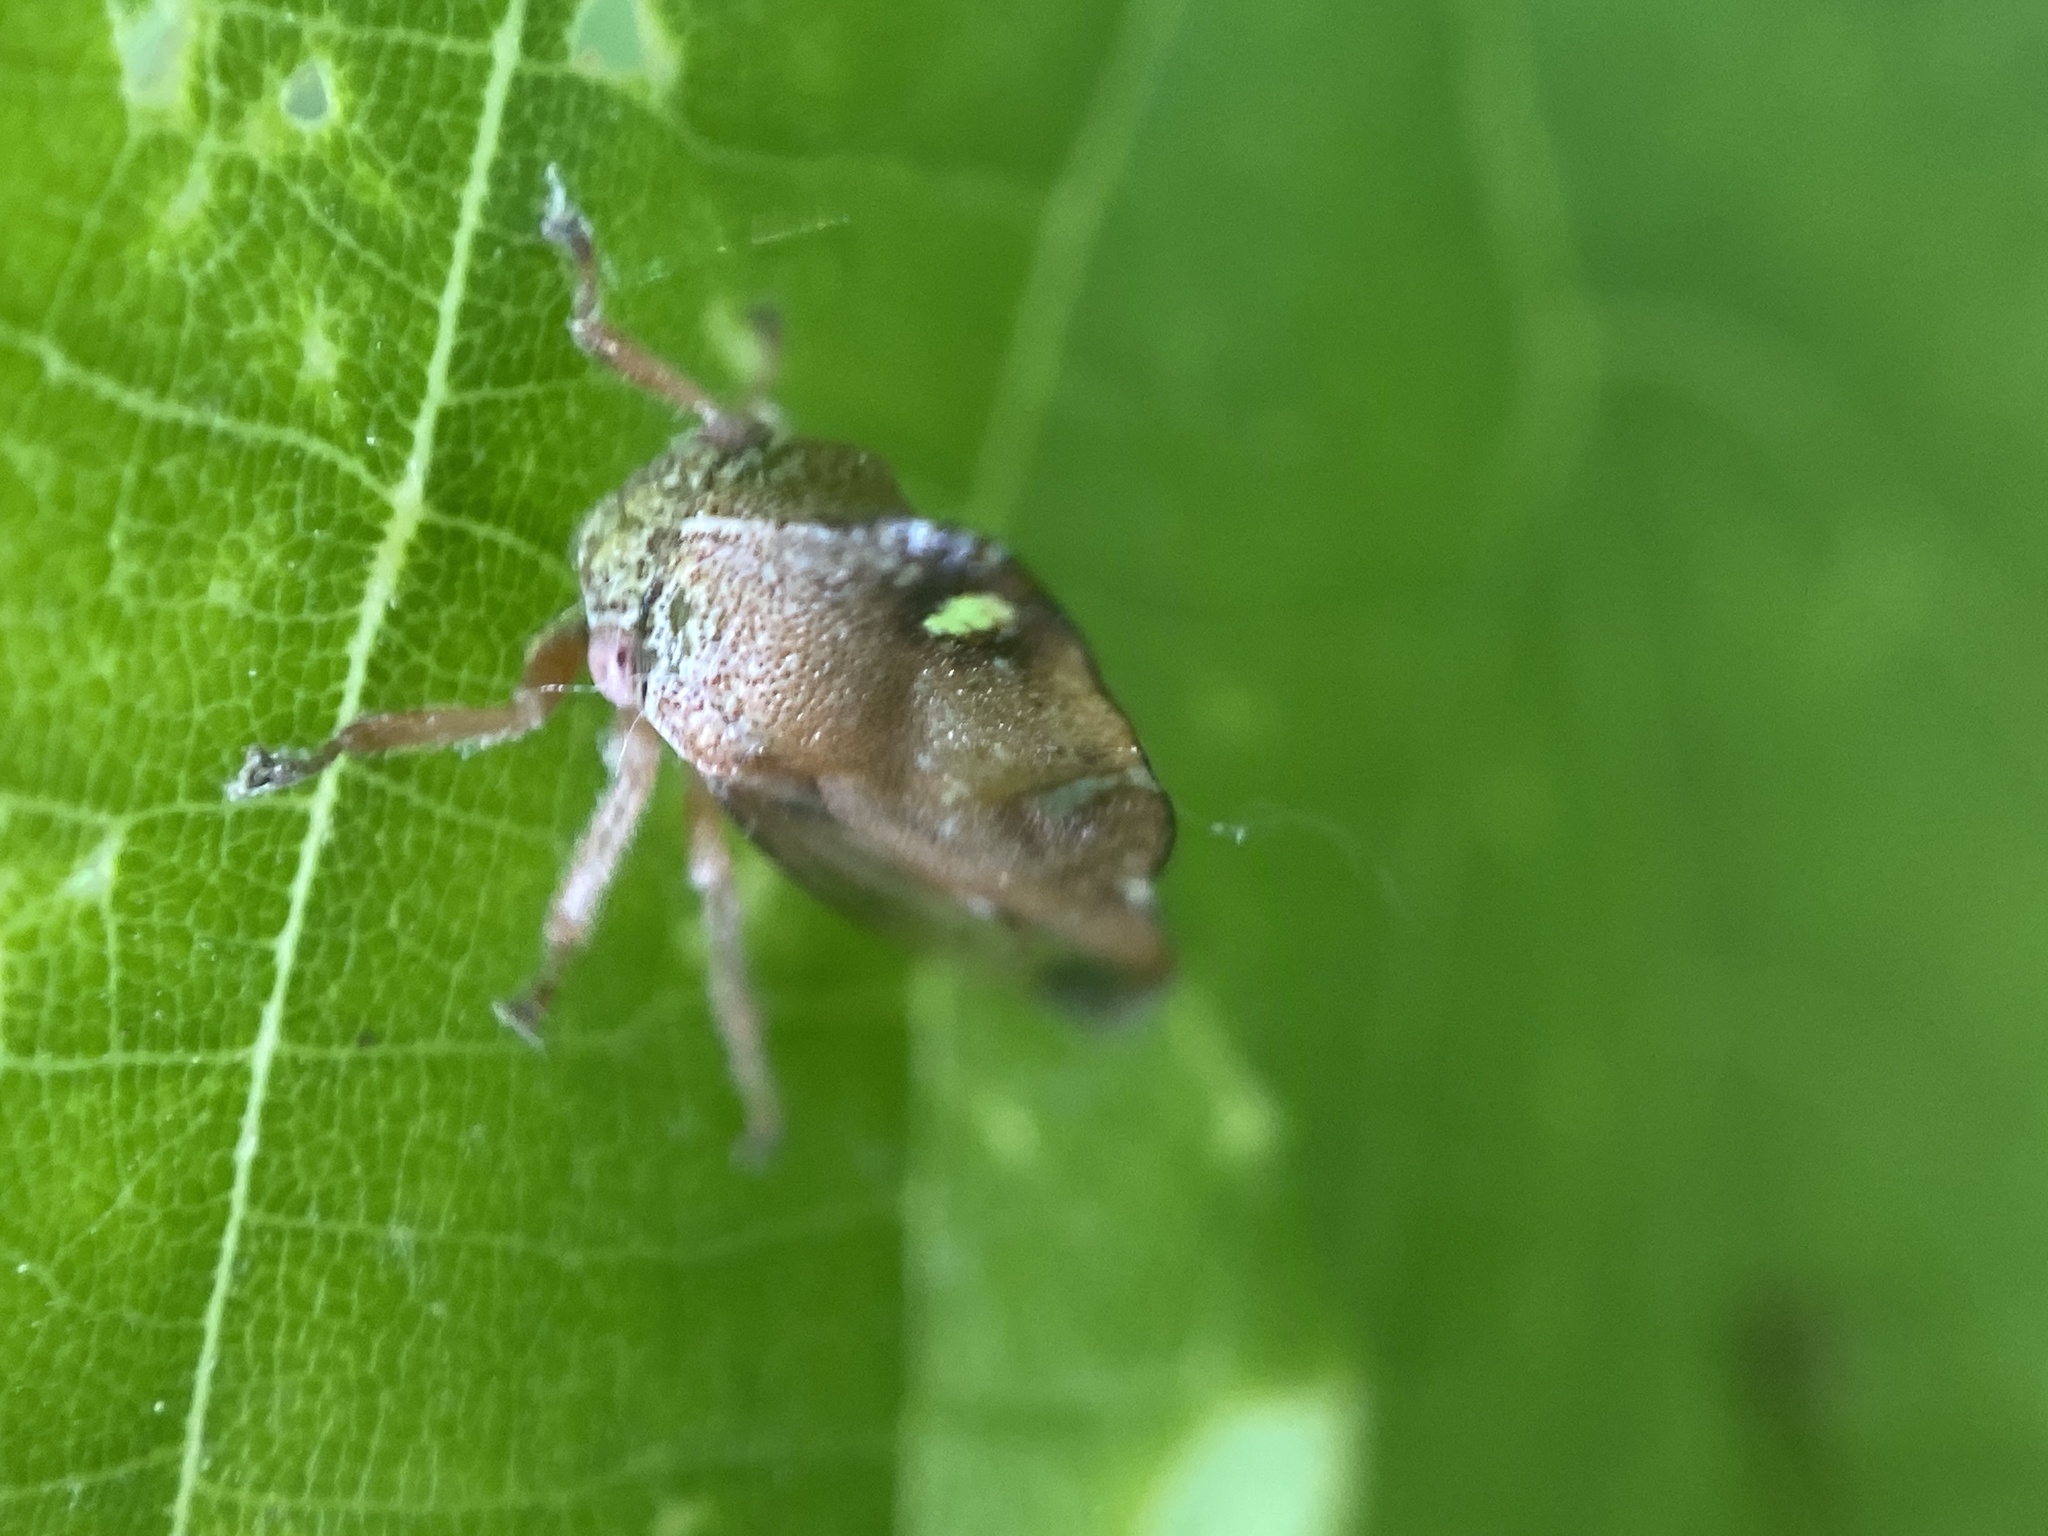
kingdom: Animalia
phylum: Arthropoda
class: Insecta
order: Hemiptera
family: Membracidae
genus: Smilia
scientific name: Smilia camelus
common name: Camel treehopper
